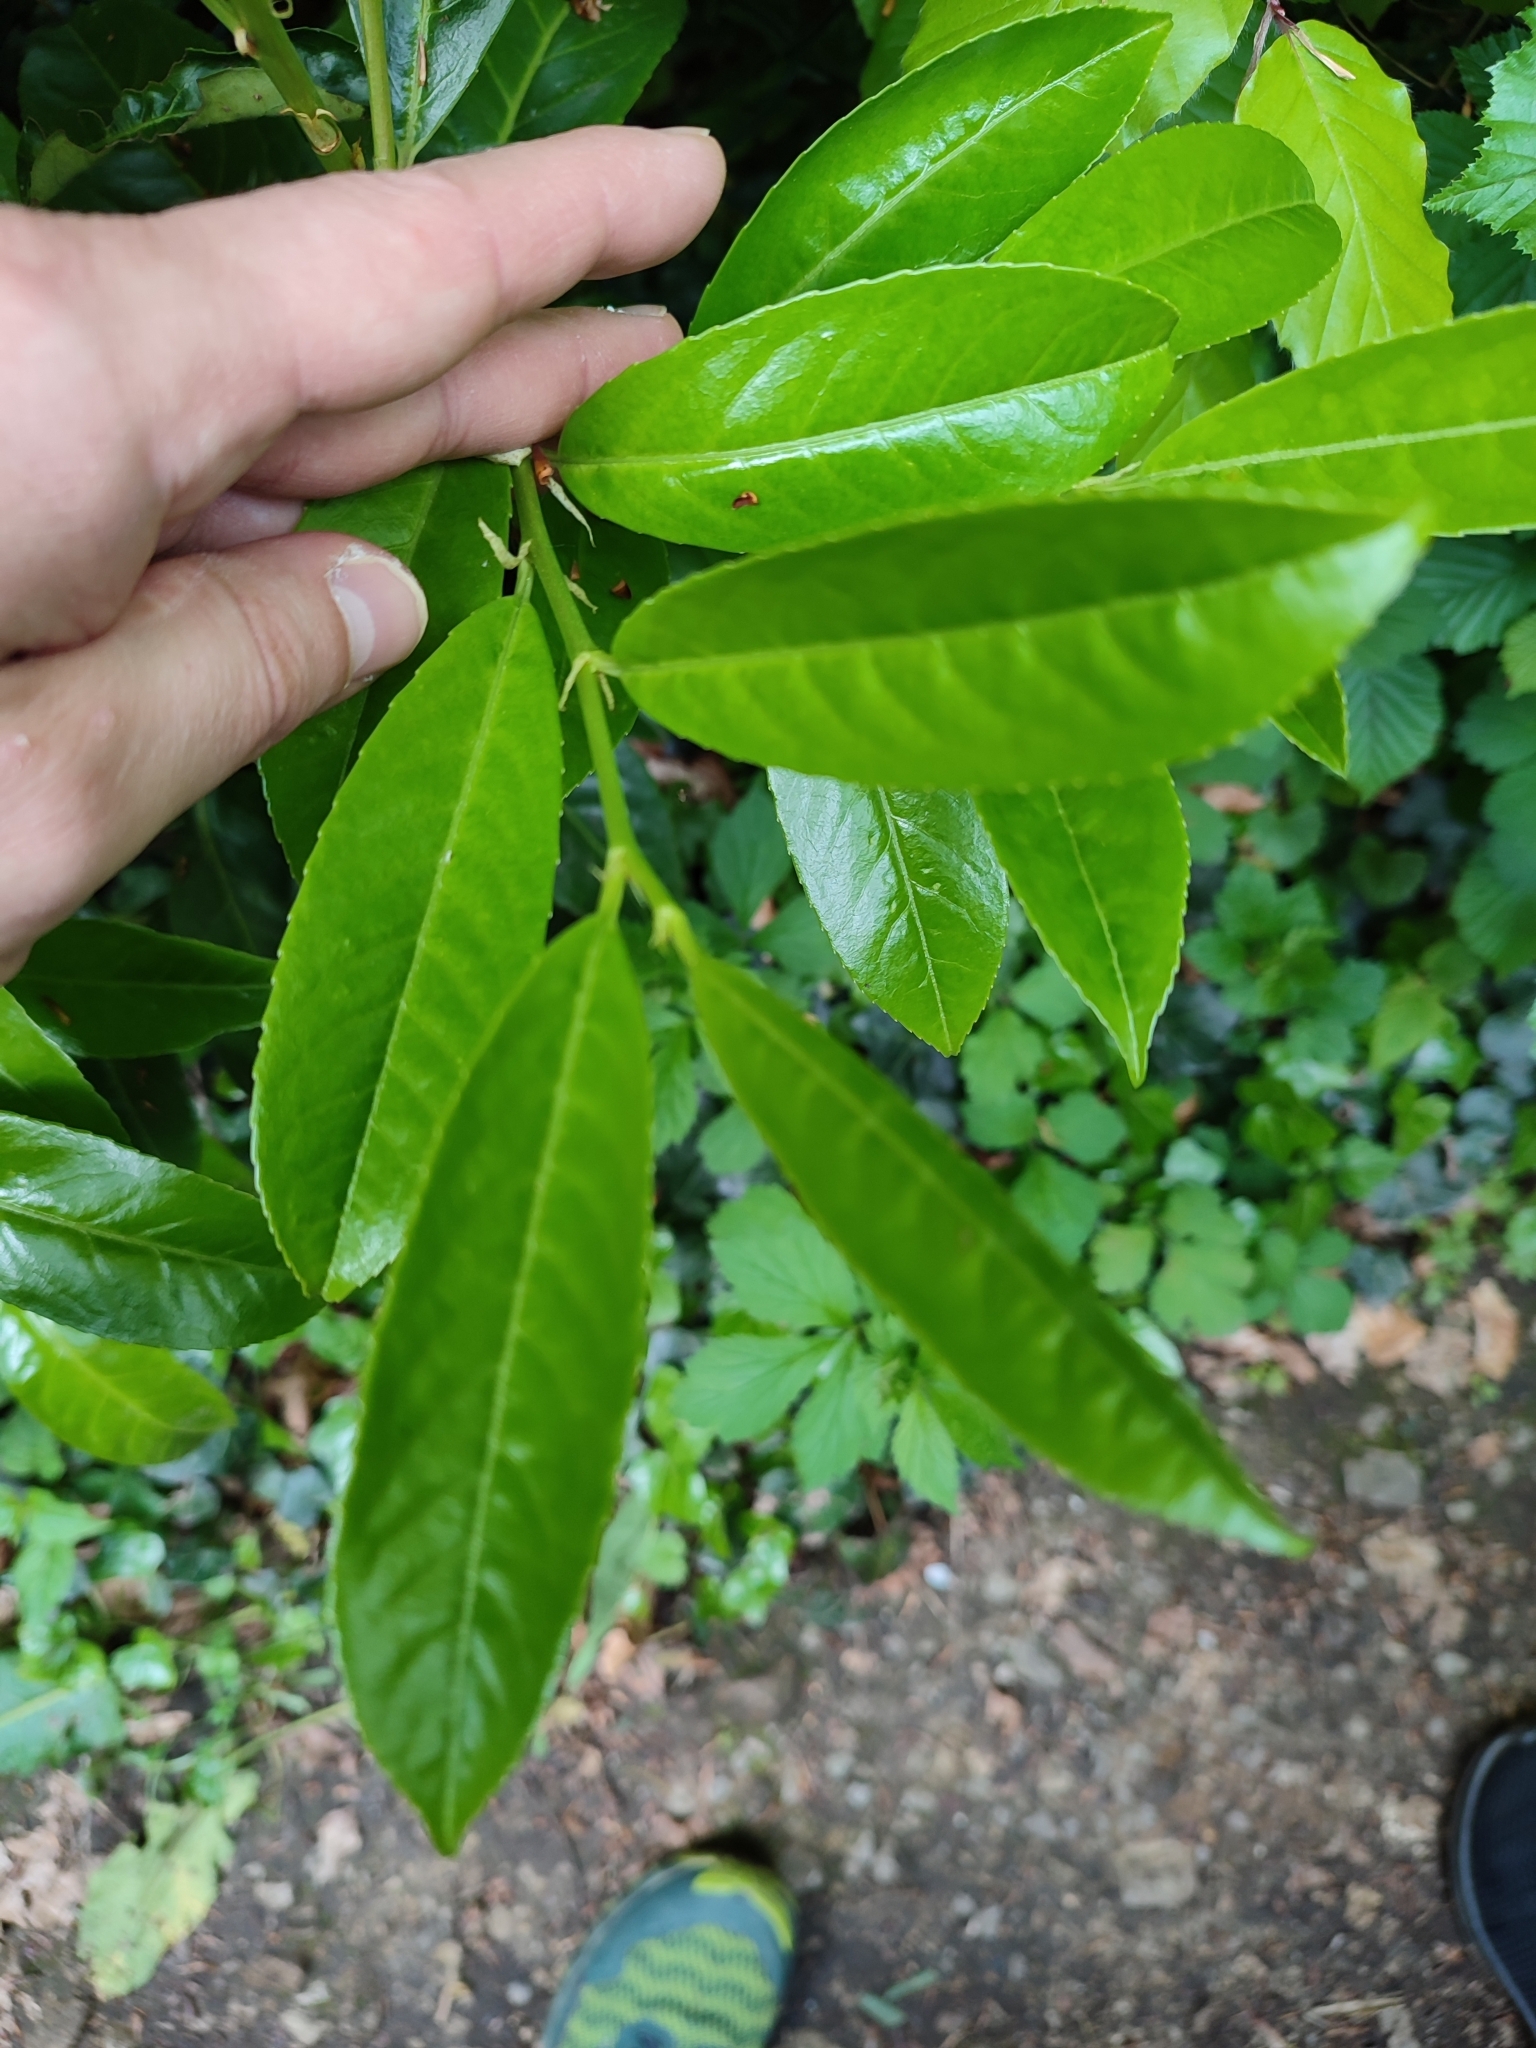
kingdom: Plantae
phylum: Tracheophyta
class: Magnoliopsida
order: Rosales
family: Rosaceae
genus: Prunus
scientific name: Prunus laurocerasus
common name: Cherry laurel
